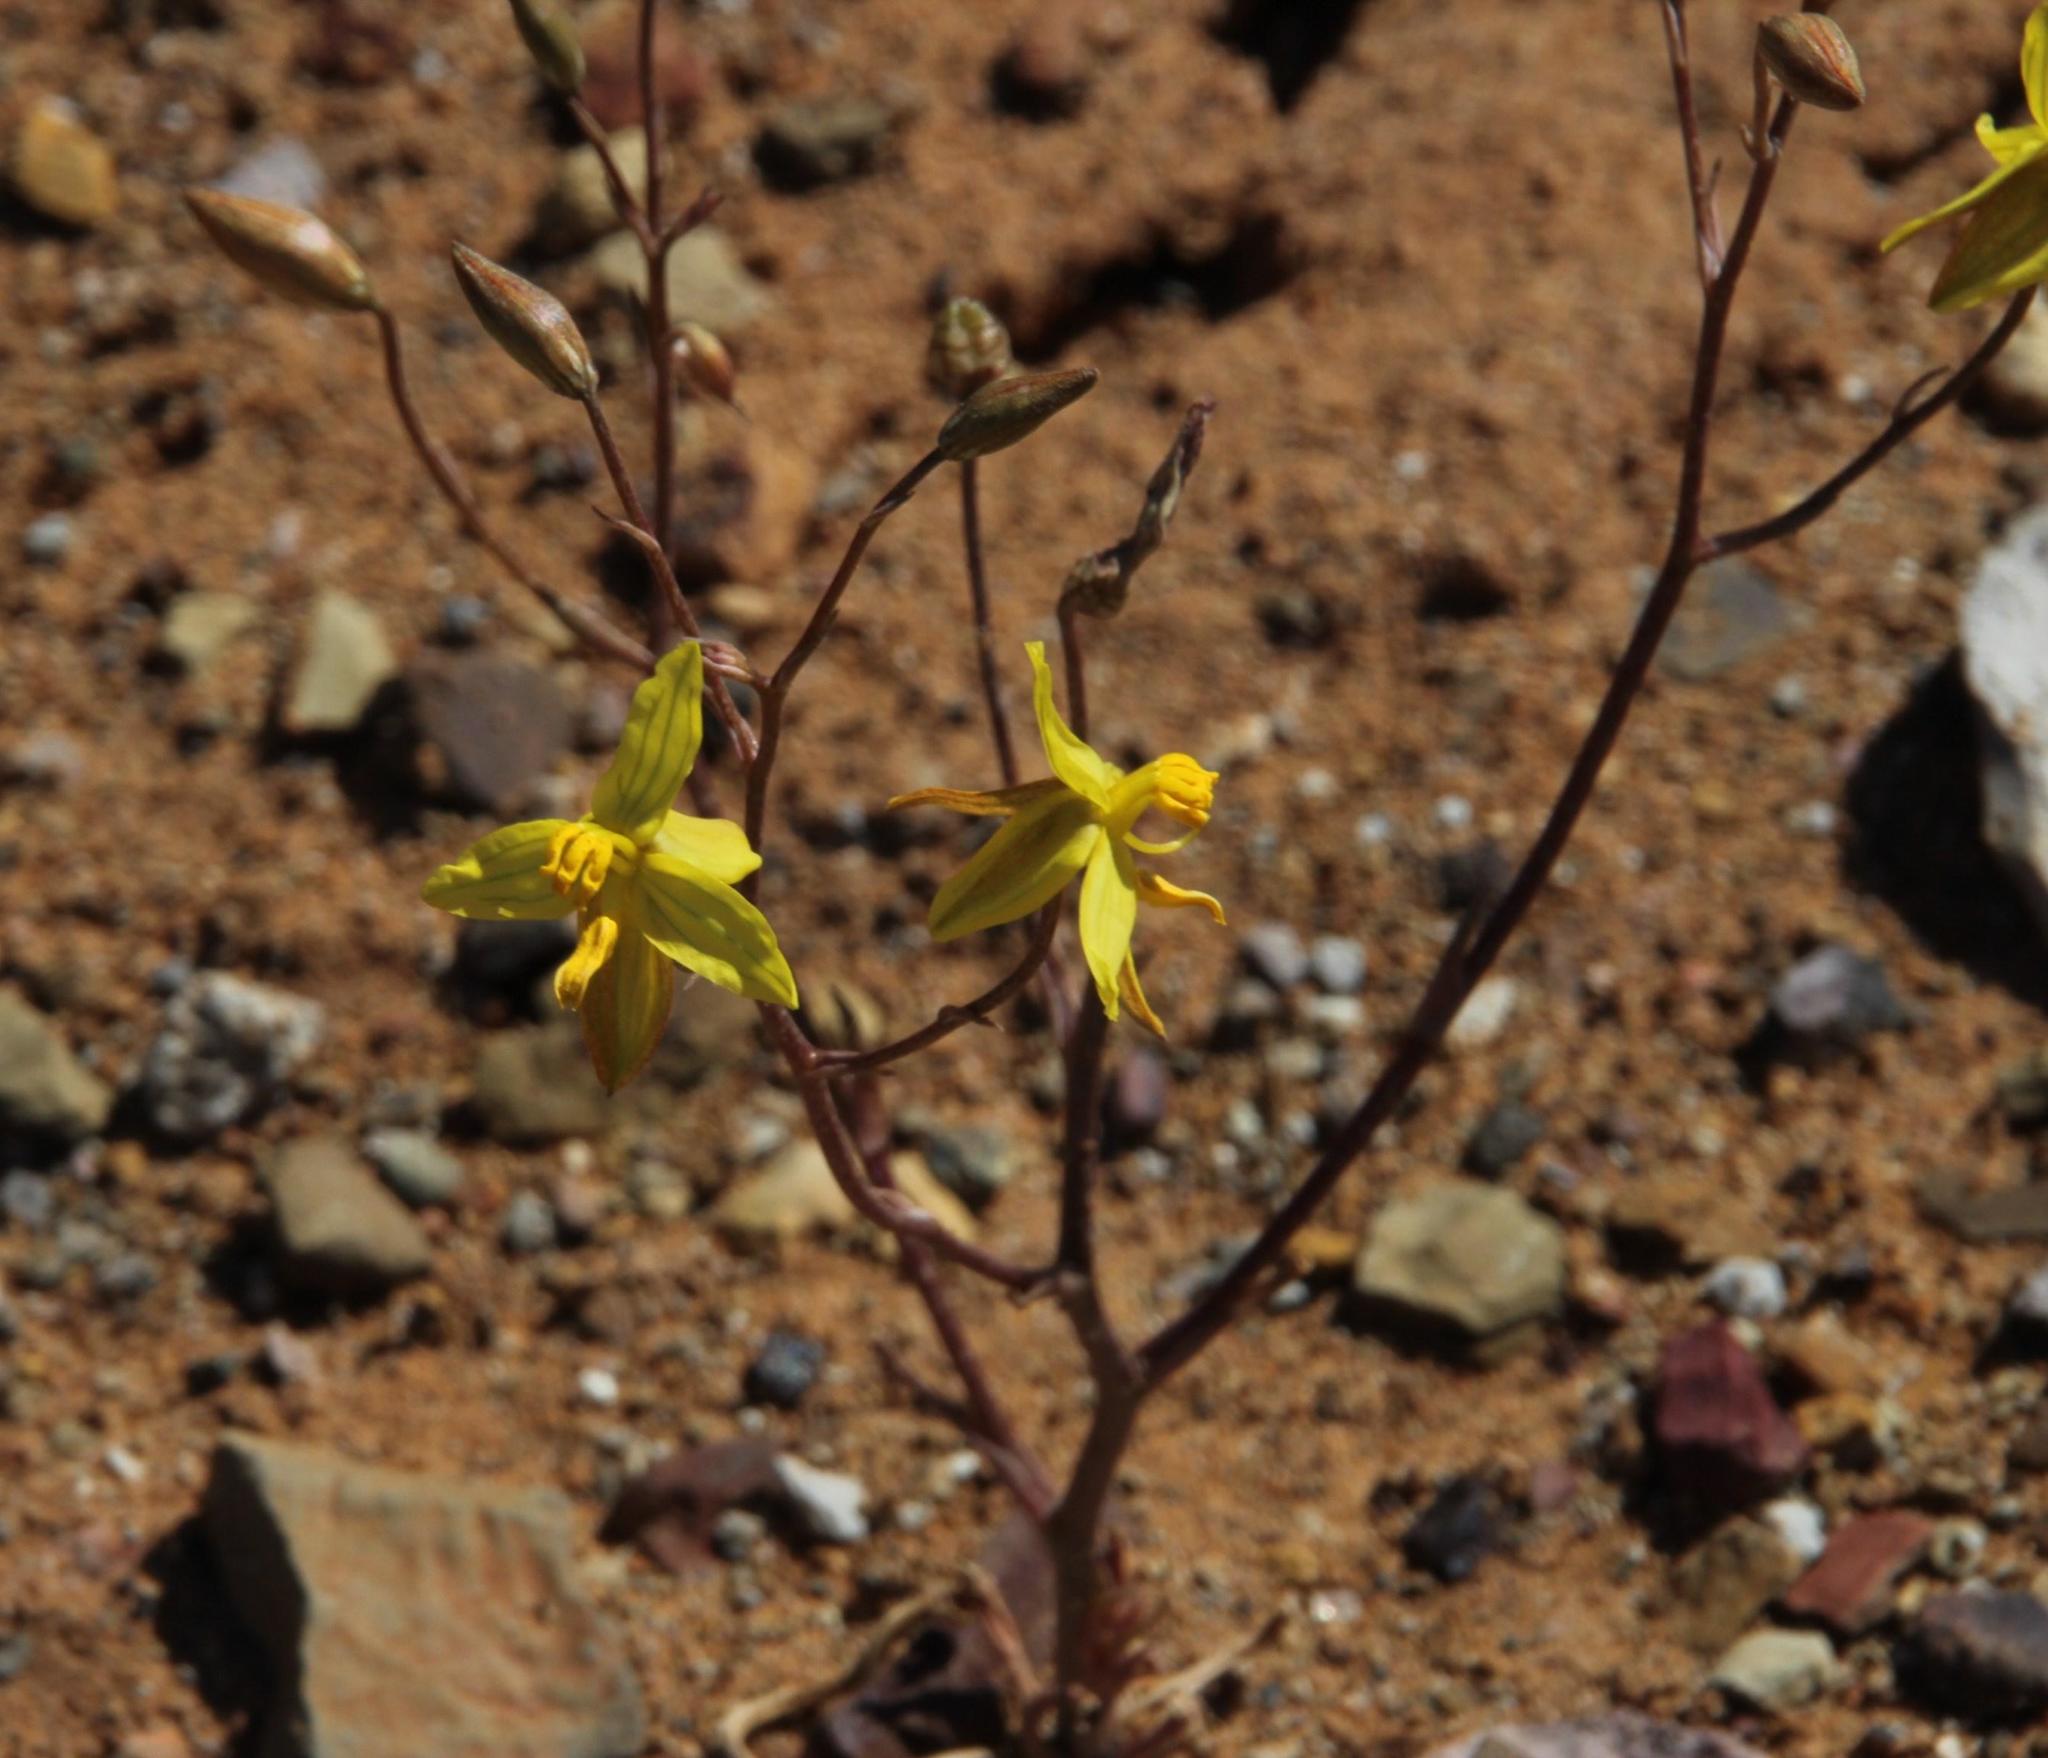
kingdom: Plantae
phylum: Tracheophyta
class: Liliopsida
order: Asparagales
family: Tecophilaeaceae
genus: Cyanella
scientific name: Cyanella lutea
